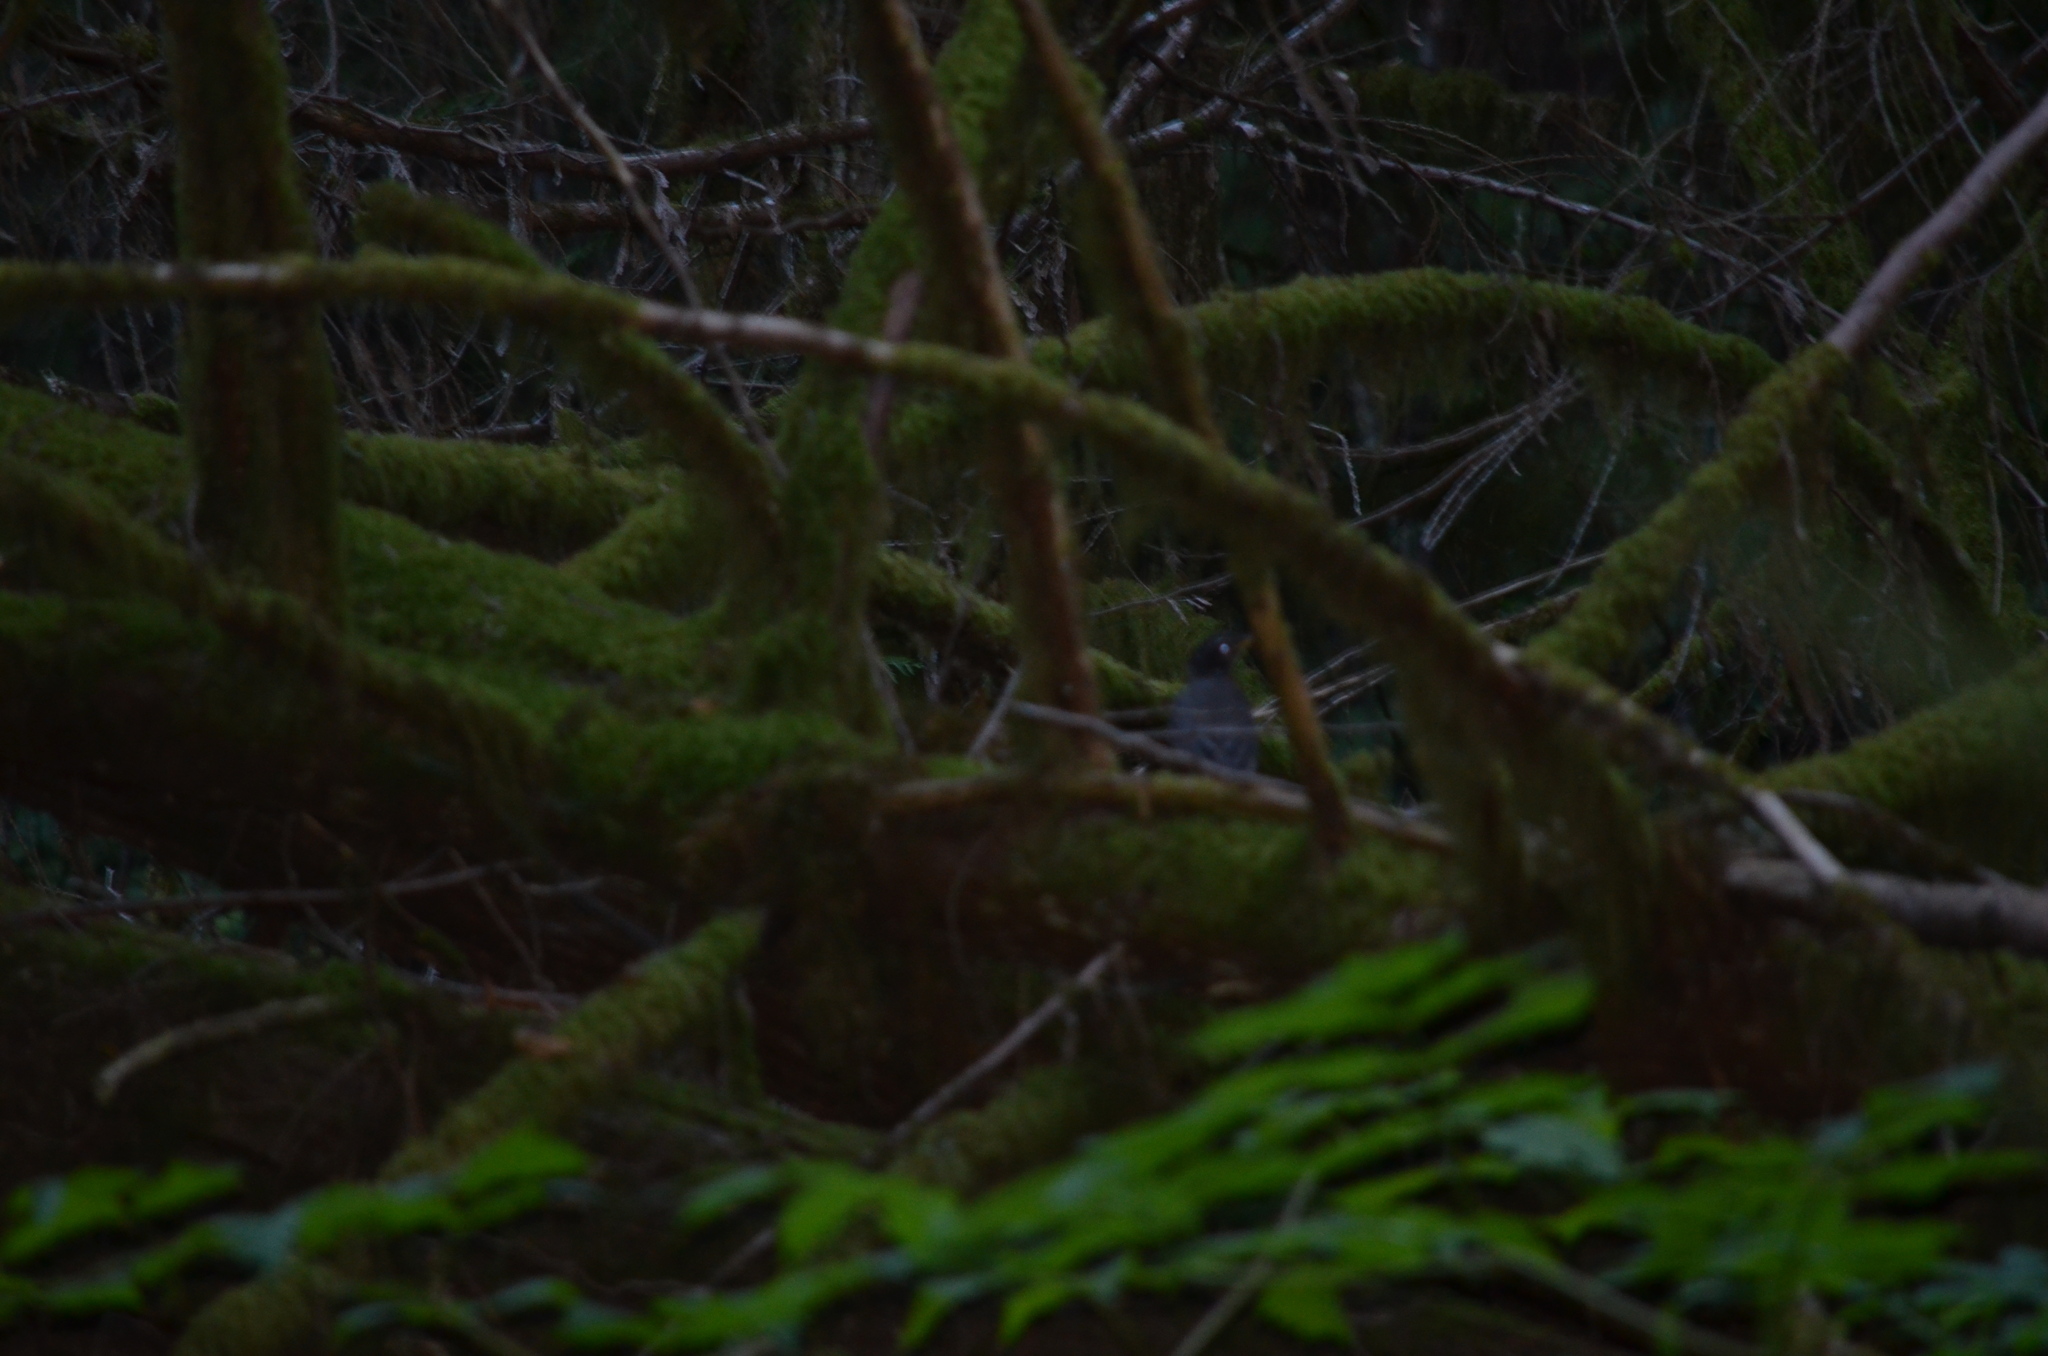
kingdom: Animalia
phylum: Chordata
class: Aves
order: Passeriformes
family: Turdidae
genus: Turdus
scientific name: Turdus migratorius
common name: American robin
